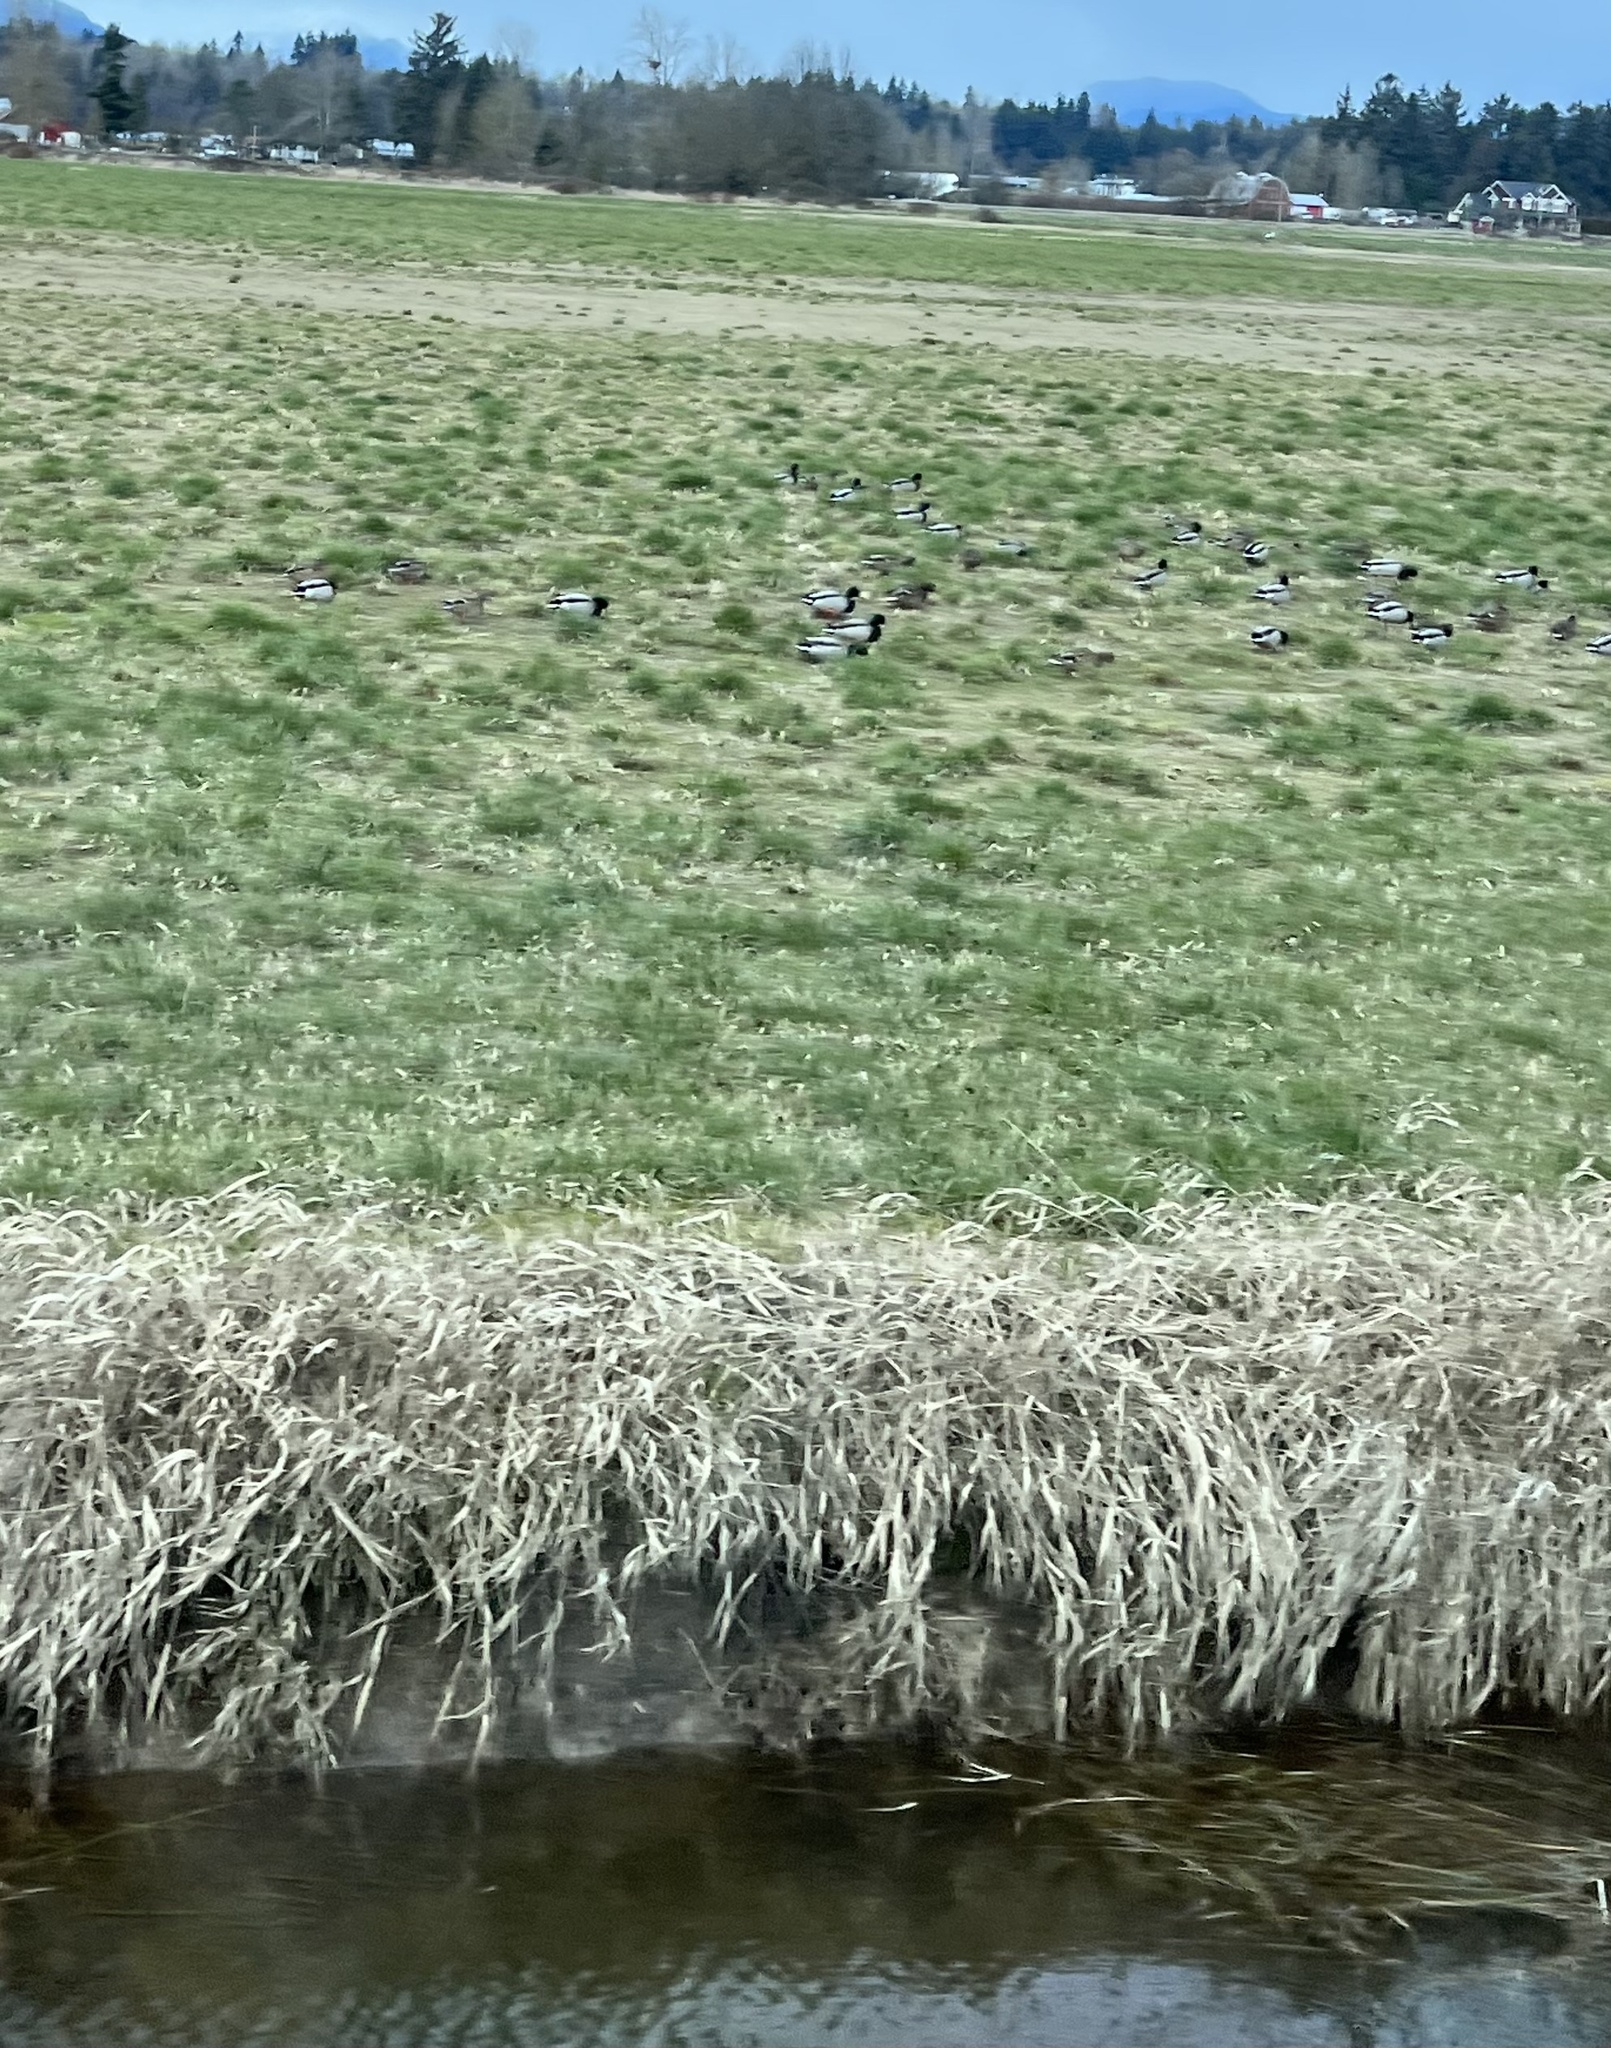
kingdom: Animalia
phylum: Chordata
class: Aves
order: Anseriformes
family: Anatidae
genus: Anas
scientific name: Anas platyrhynchos
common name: Mallard
